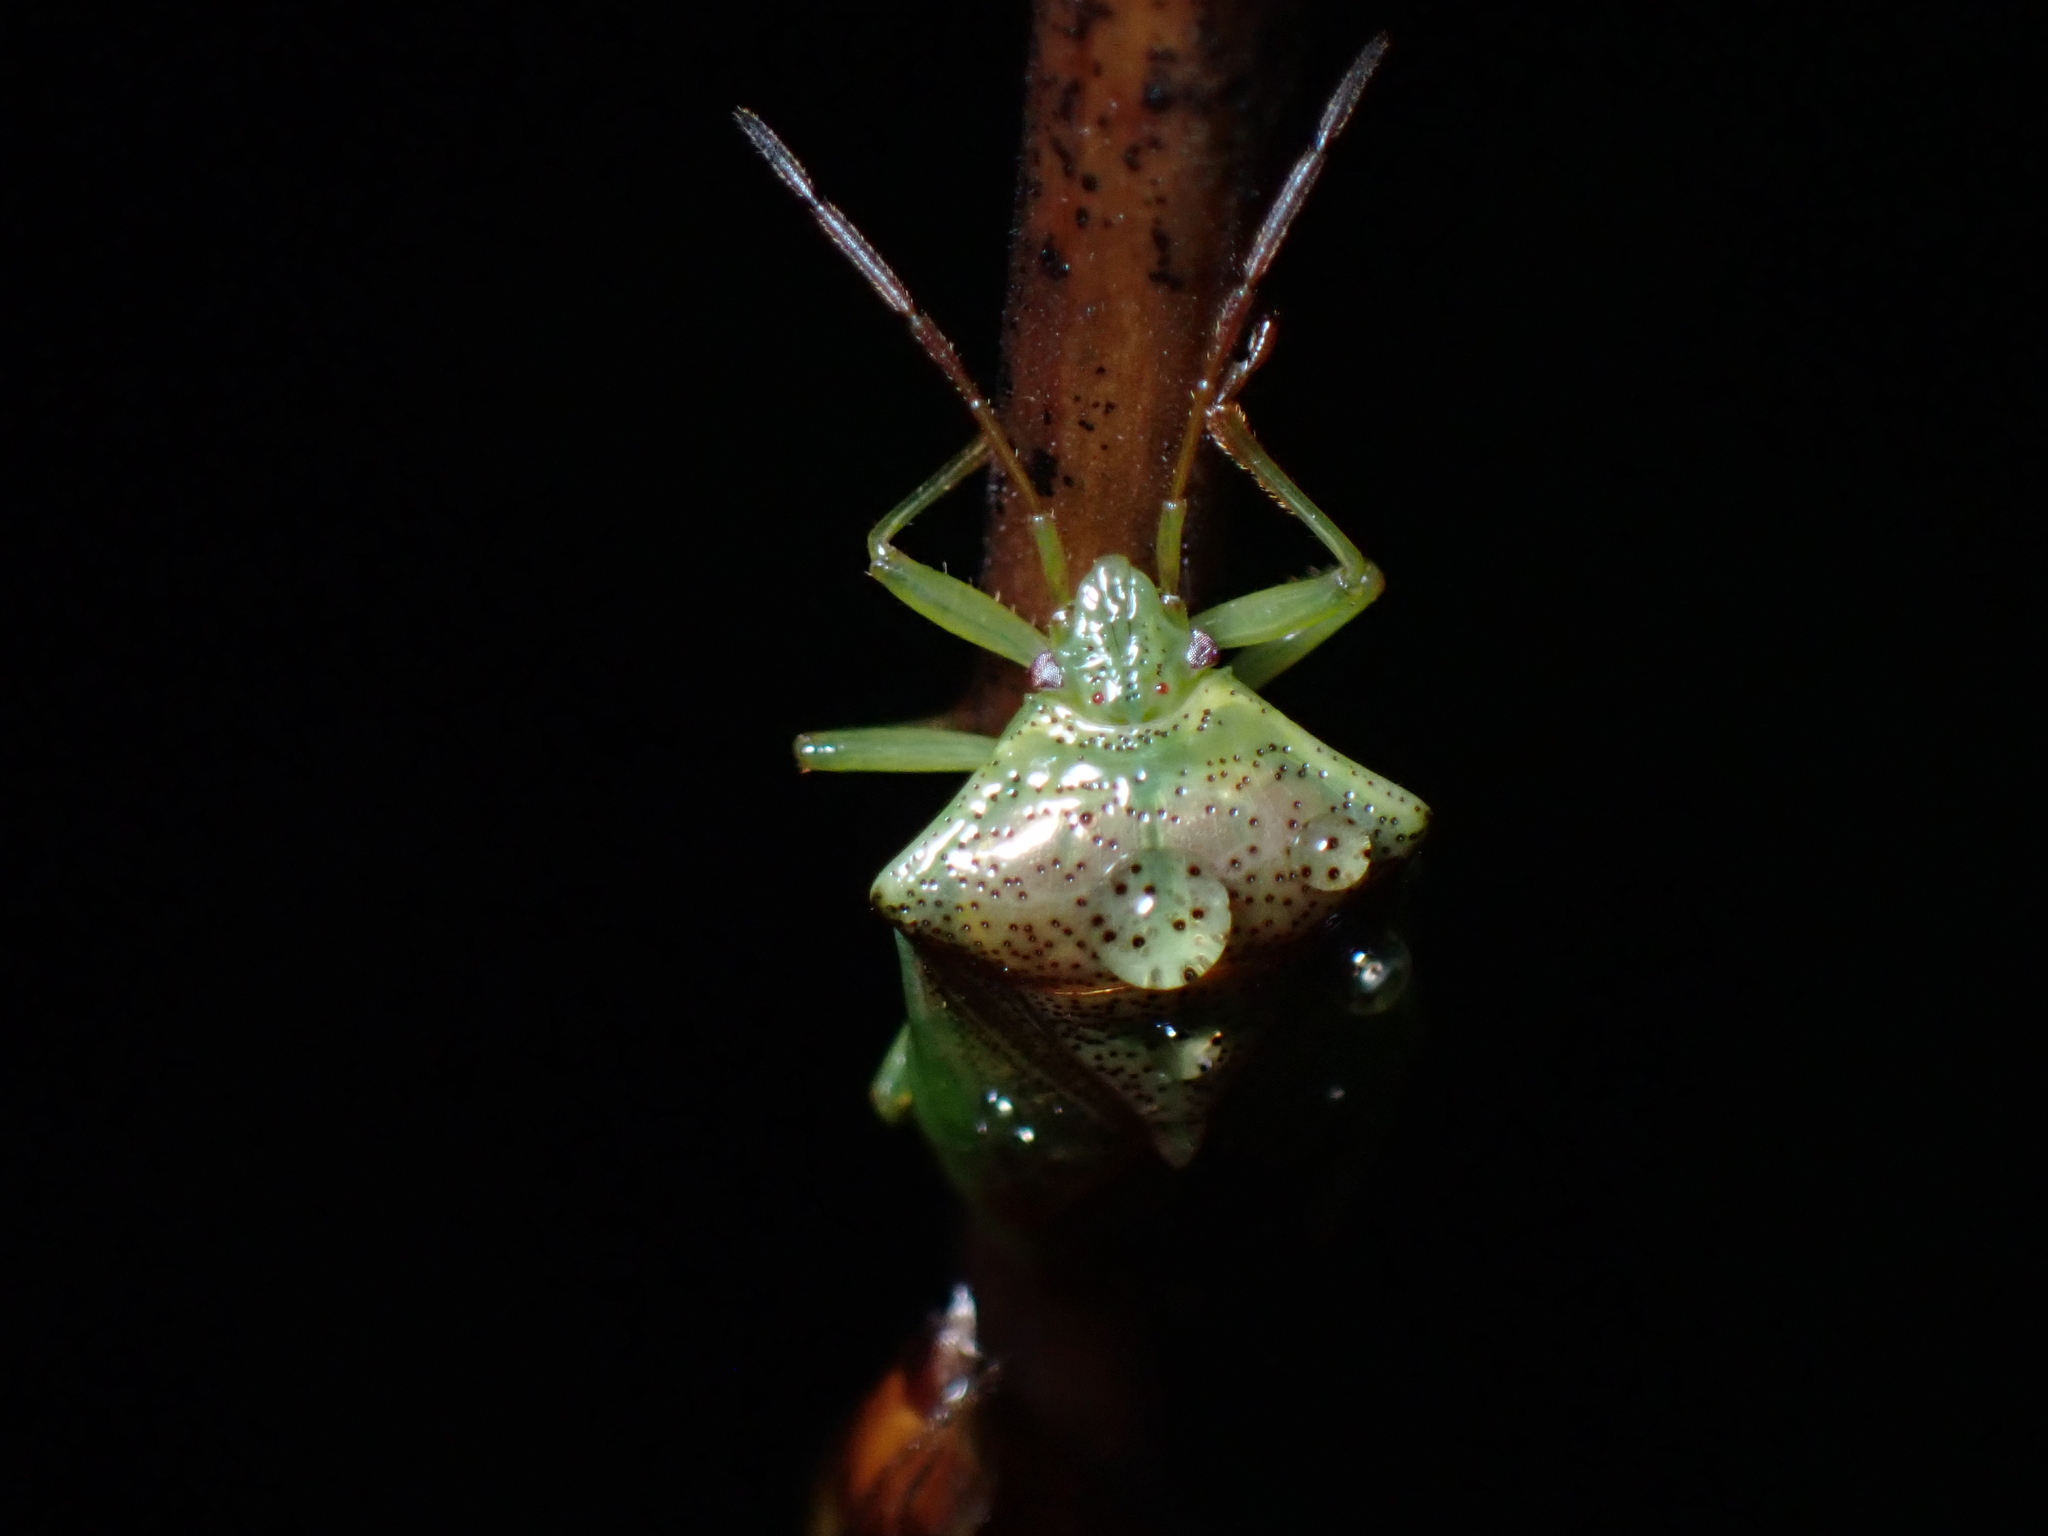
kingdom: Animalia
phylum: Arthropoda
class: Insecta
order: Hemiptera
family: Acanthosomatidae
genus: Elasmostethus
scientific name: Elasmostethus cruciatus
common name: Red-cross shield bug
